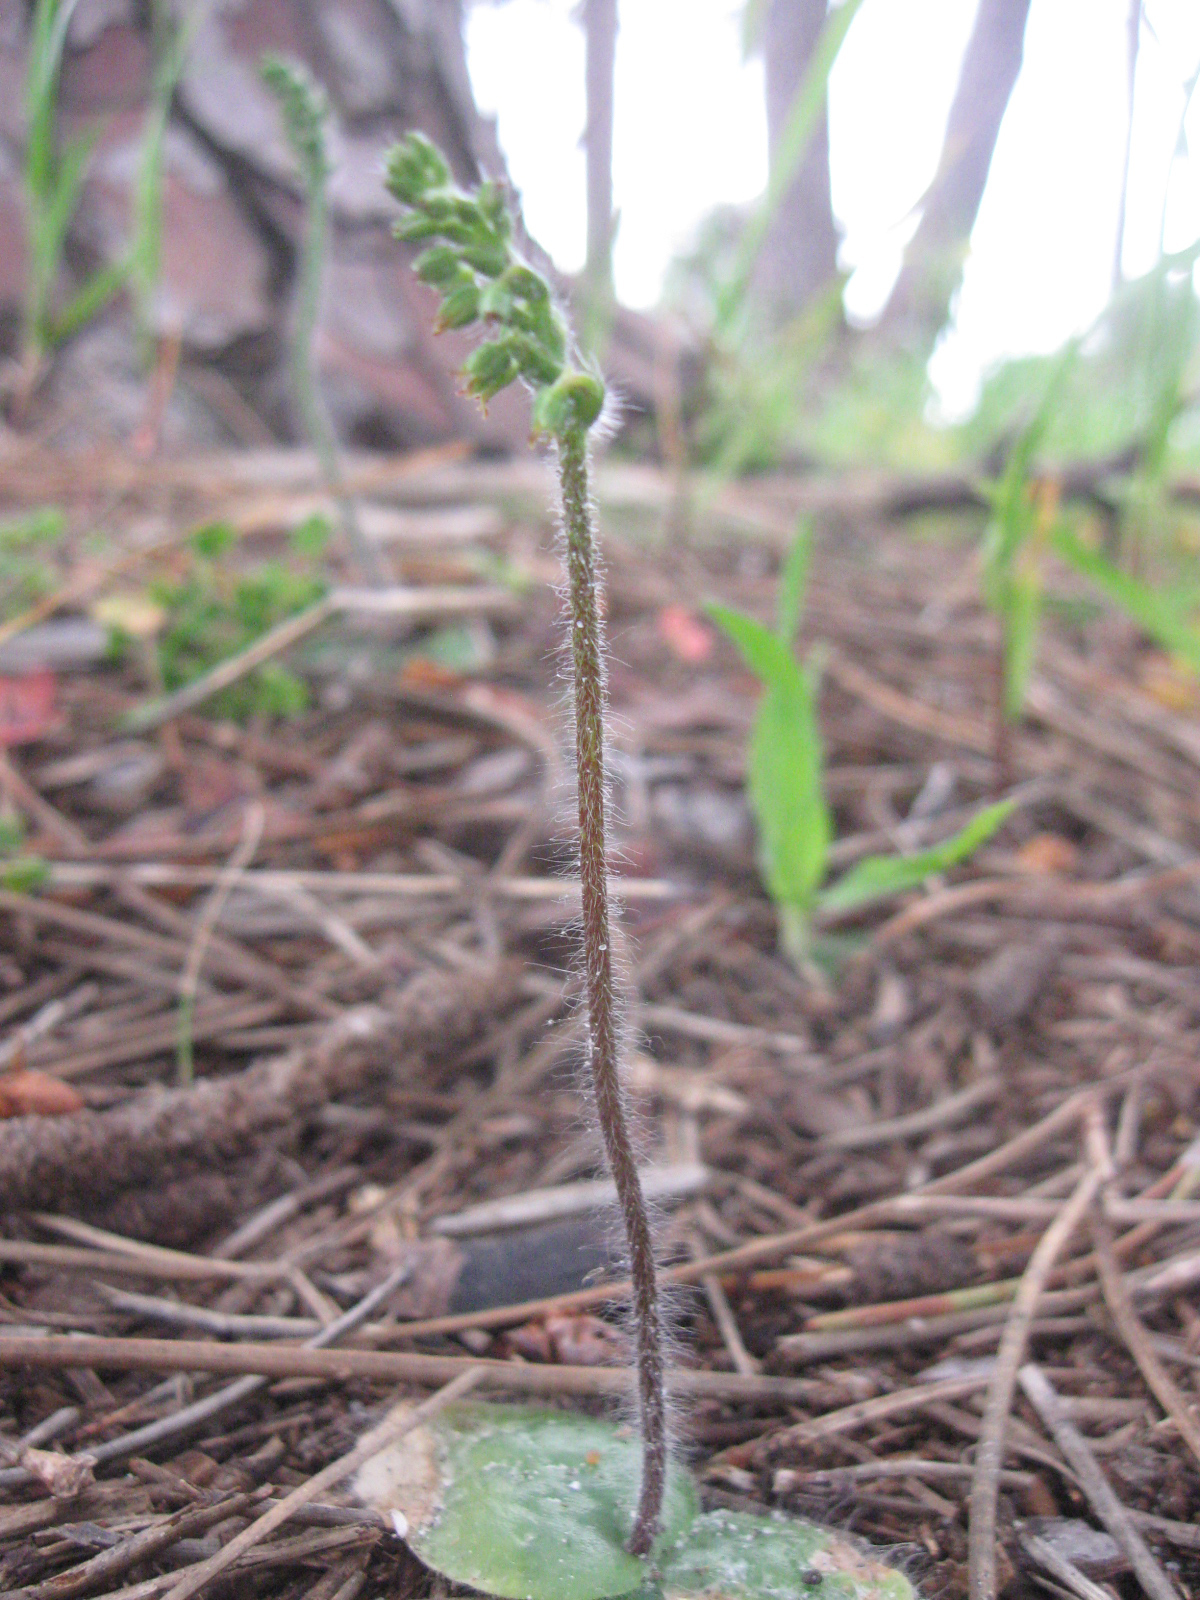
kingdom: Plantae
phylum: Tracheophyta
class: Liliopsida
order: Asparagales
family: Orchidaceae
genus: Holothrix
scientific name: Holothrix villosa
